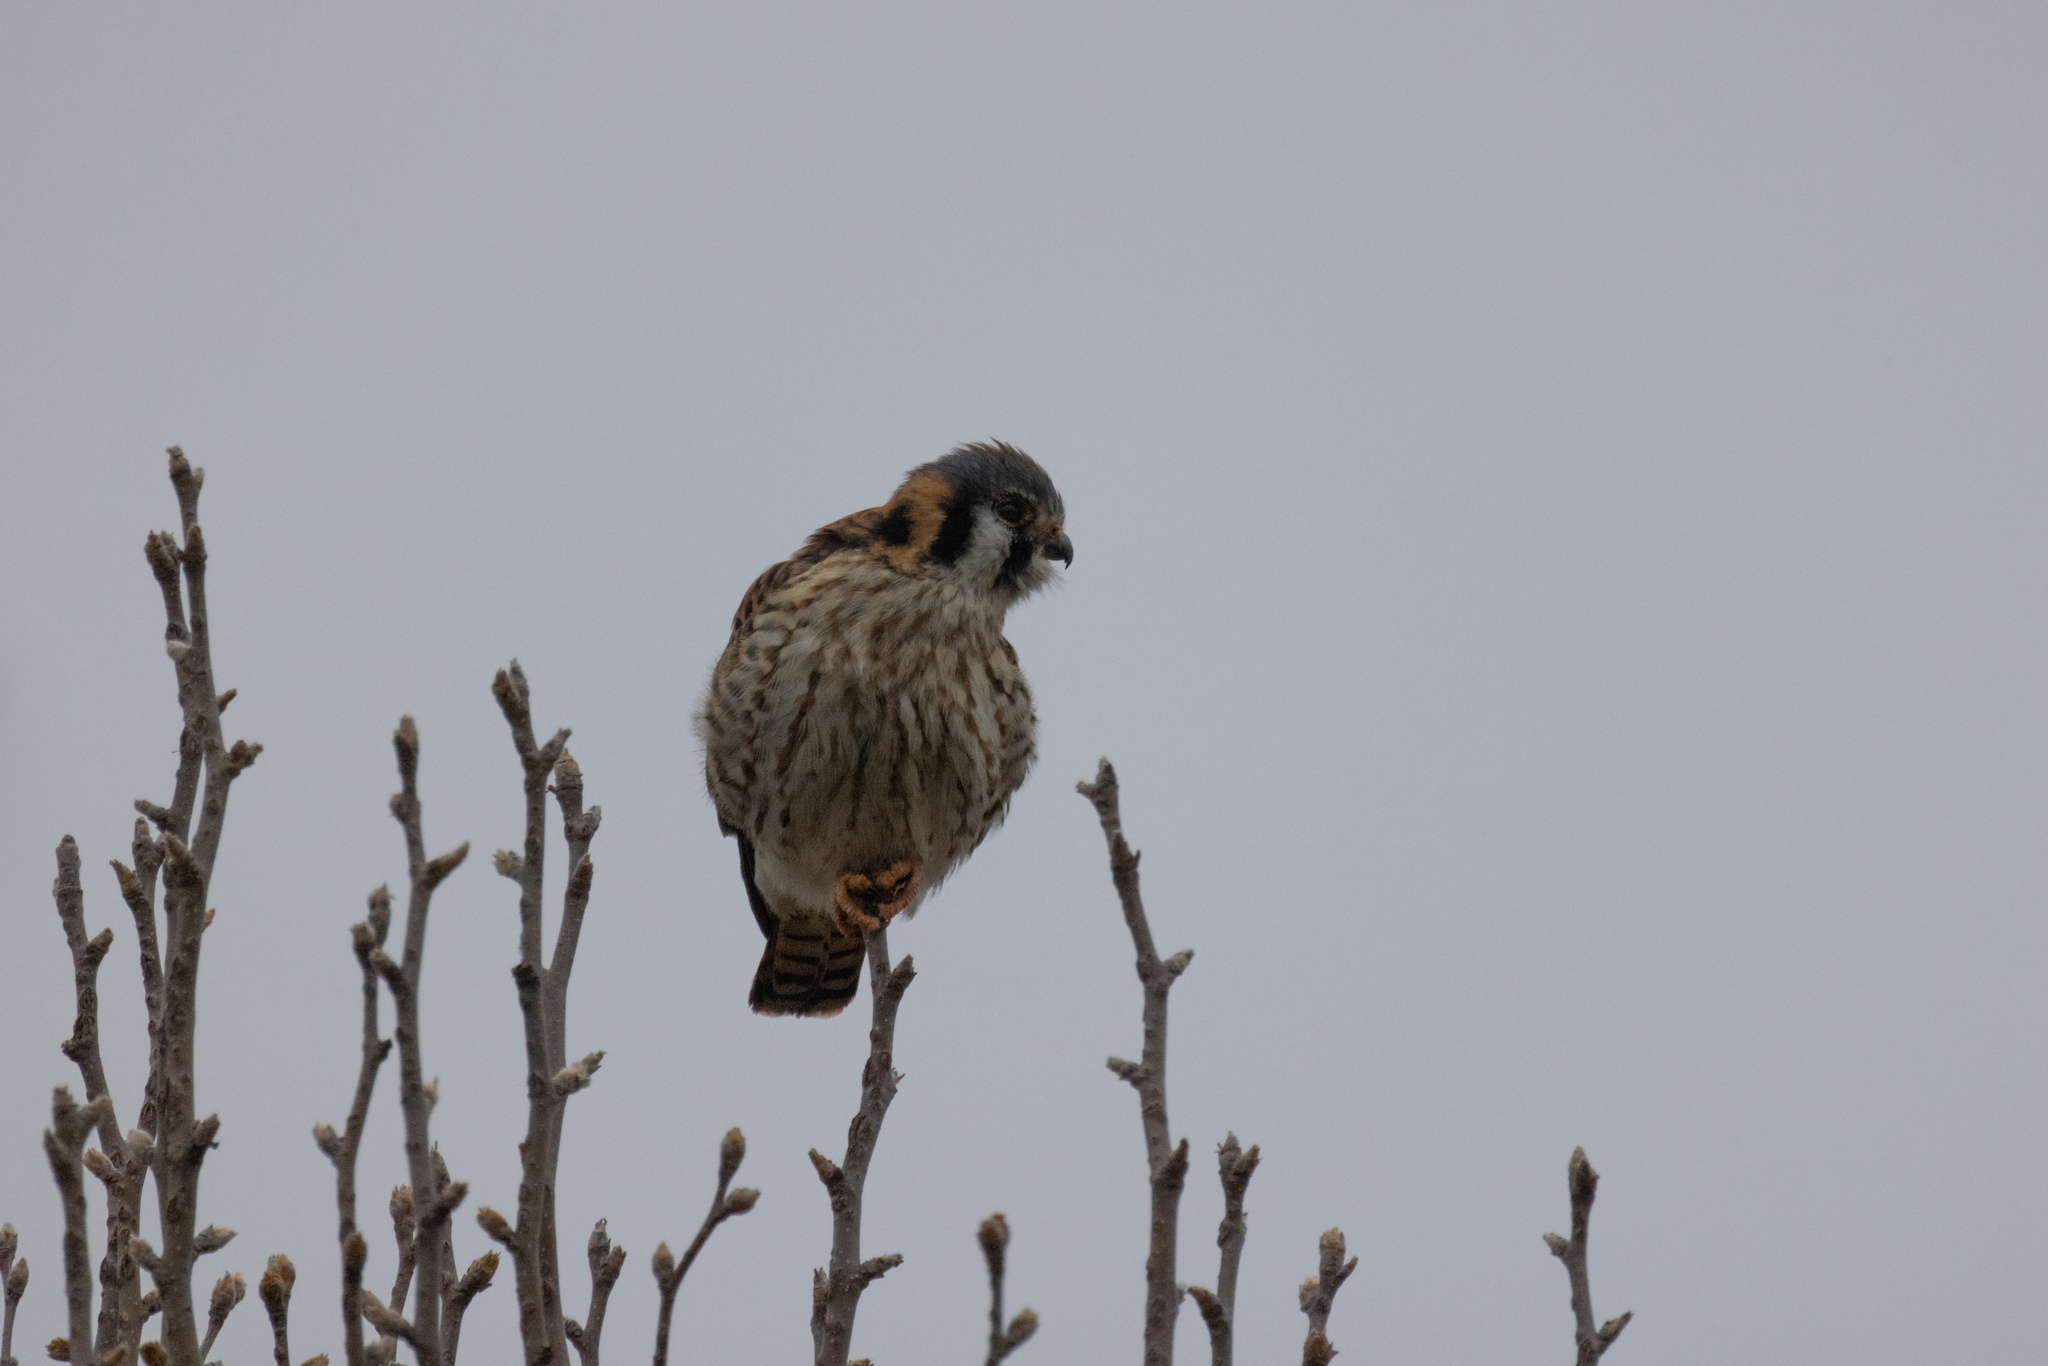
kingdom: Animalia
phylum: Chordata
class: Aves
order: Falconiformes
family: Falconidae
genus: Falco
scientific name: Falco sparverius
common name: American kestrel
